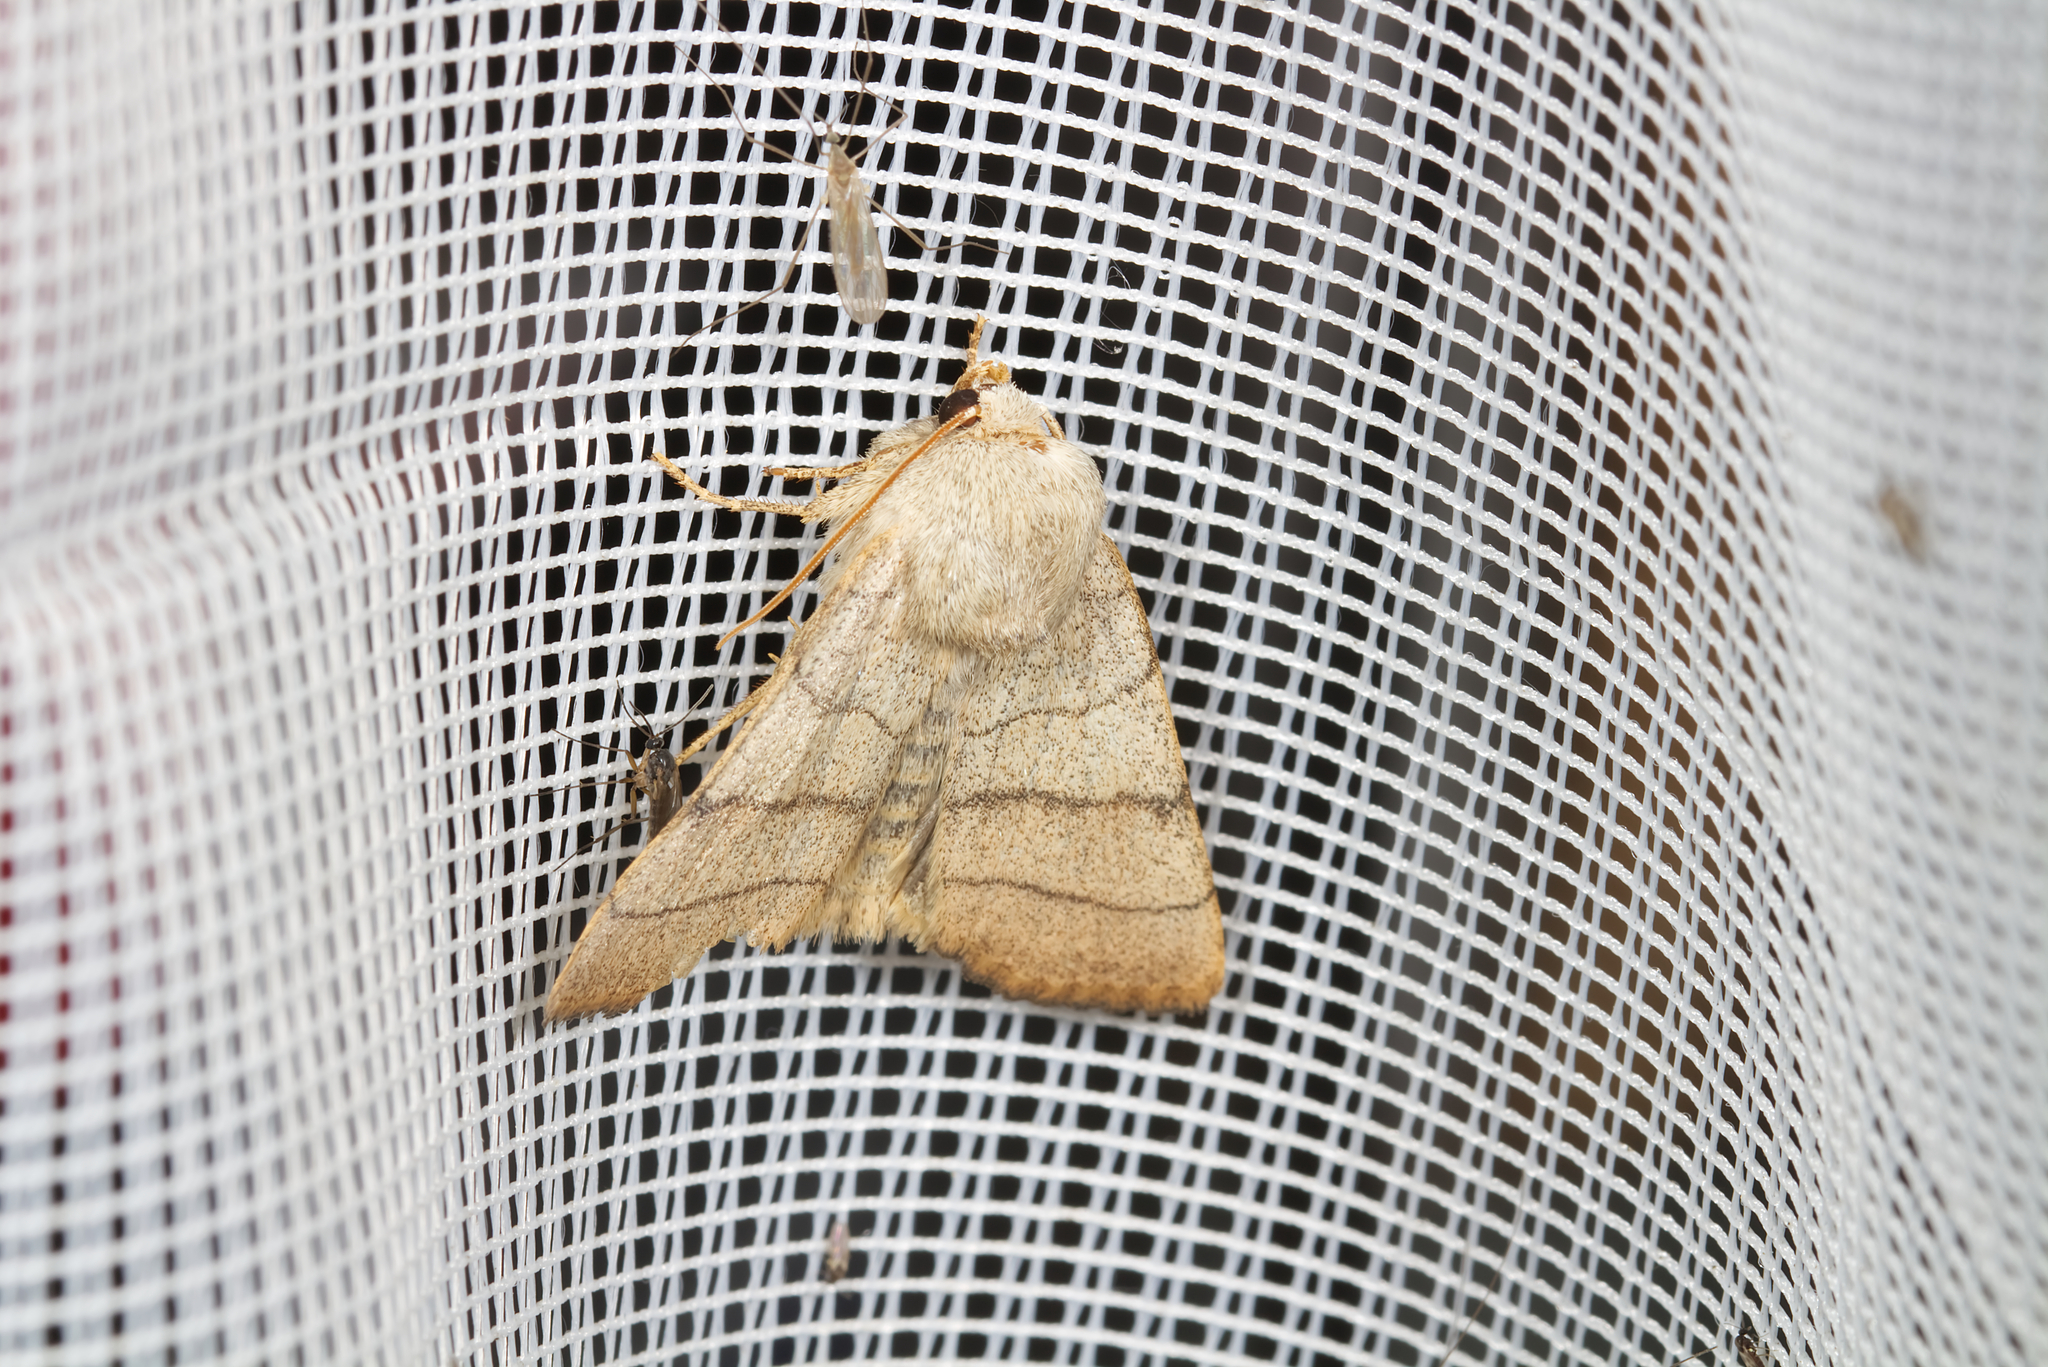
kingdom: Animalia
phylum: Arthropoda
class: Insecta
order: Lepidoptera
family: Noctuidae
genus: Charanyca
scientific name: Charanyca trigrammica
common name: Treble lines
